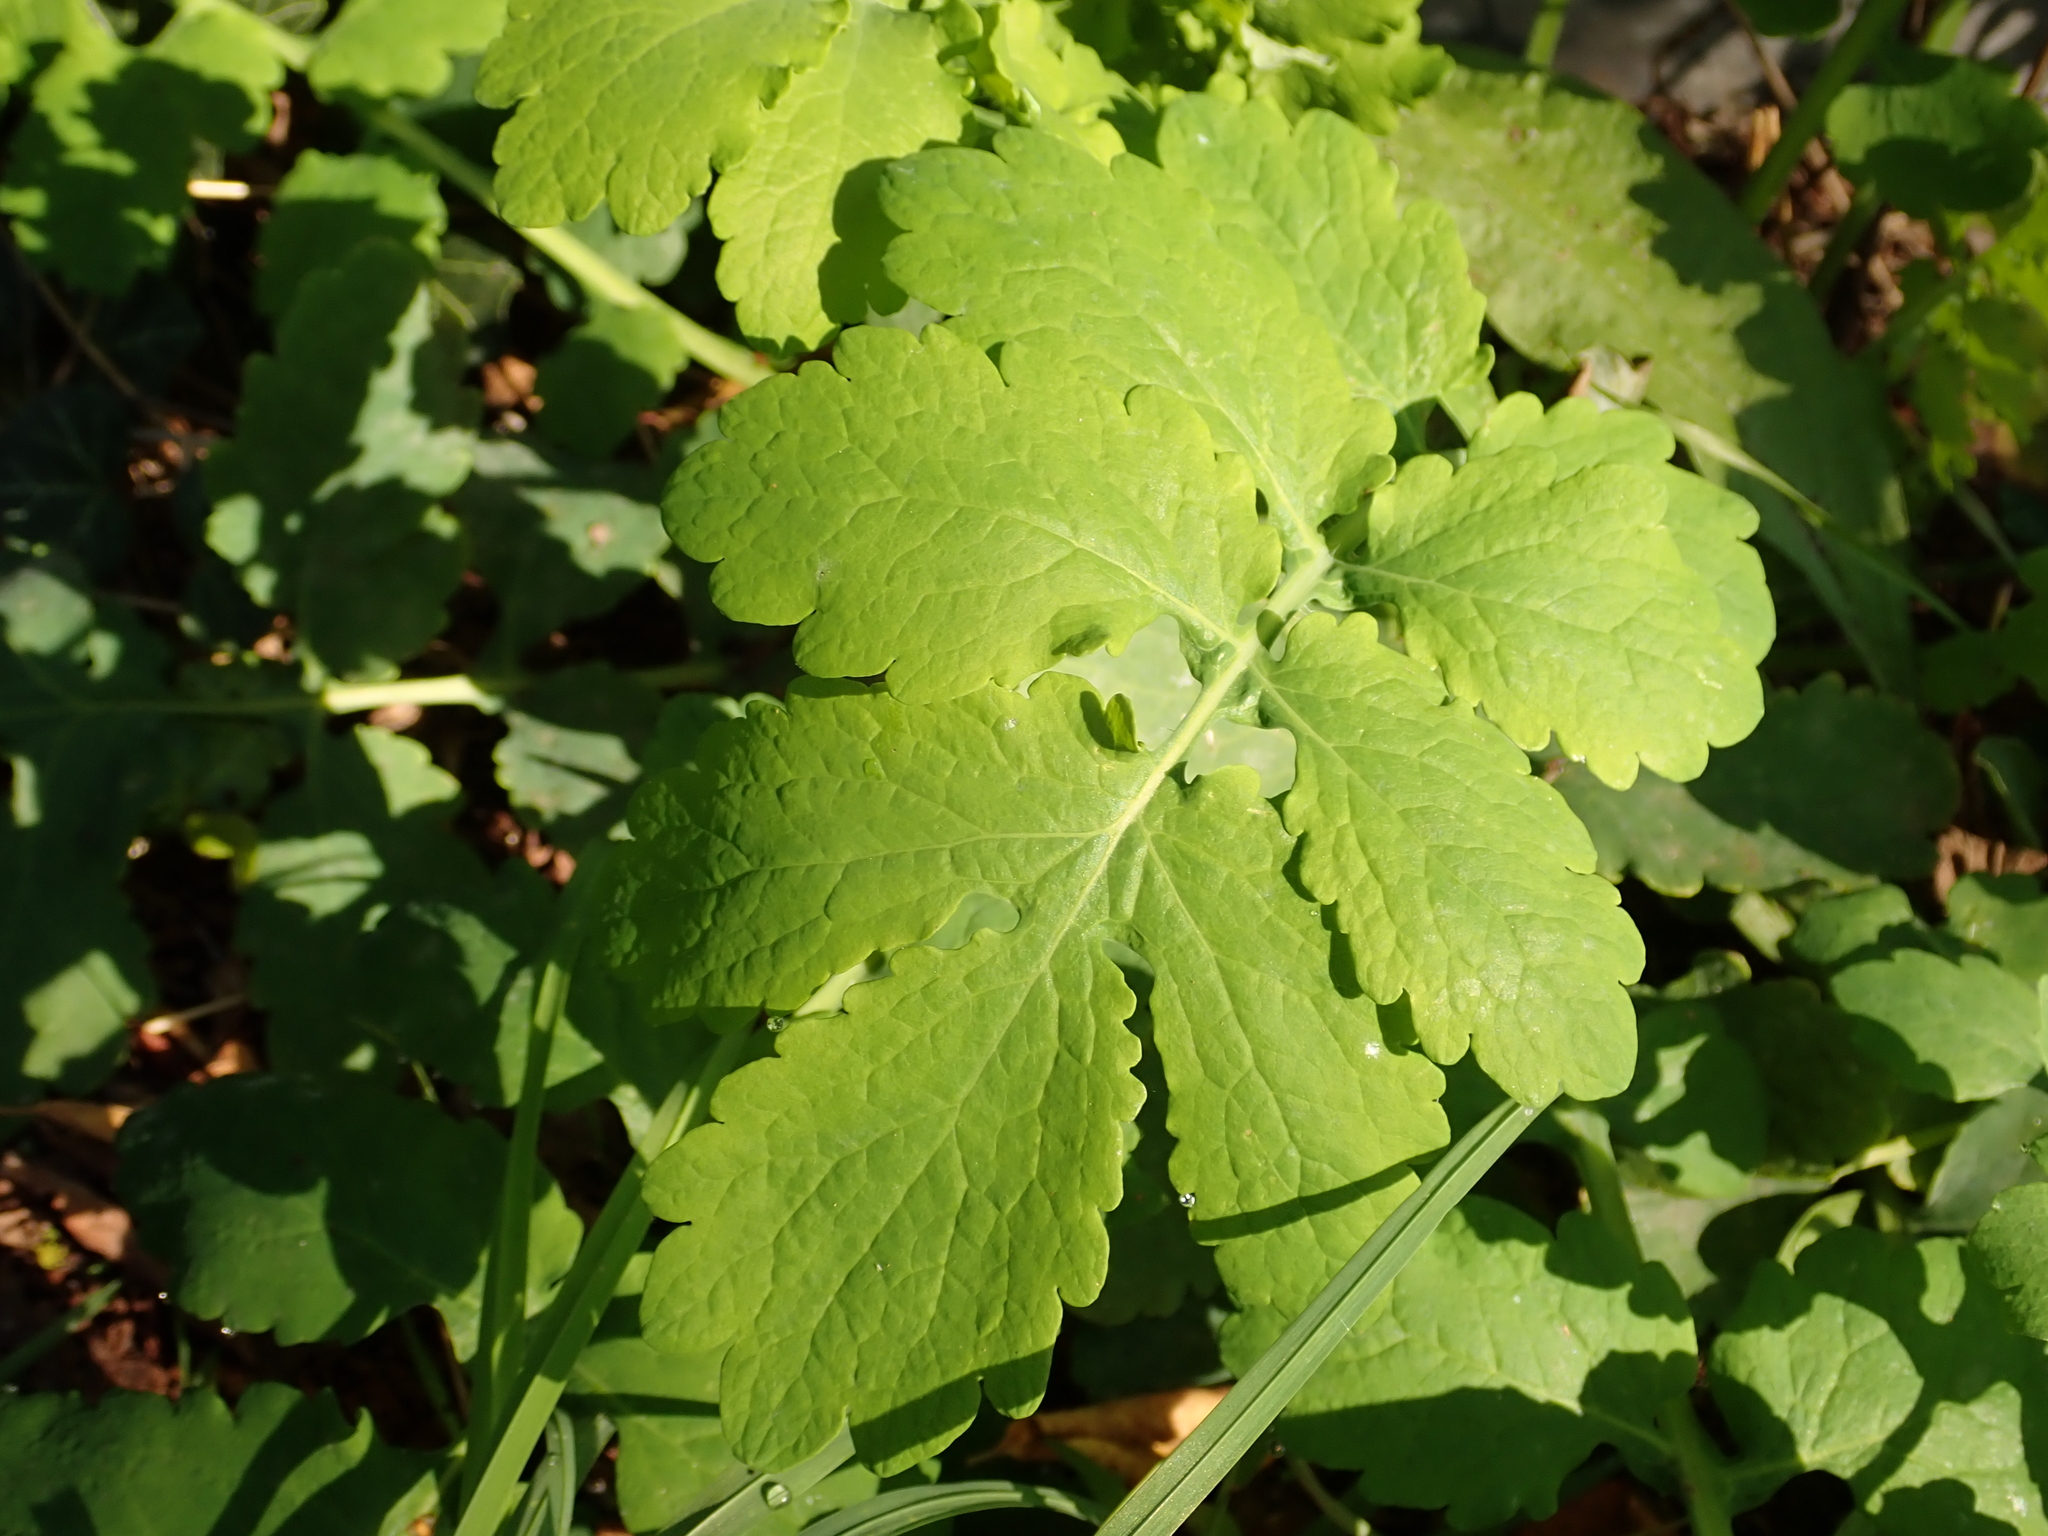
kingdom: Plantae
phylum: Tracheophyta
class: Magnoliopsida
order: Ranunculales
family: Papaveraceae
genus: Chelidonium
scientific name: Chelidonium majus
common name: Greater celandine
